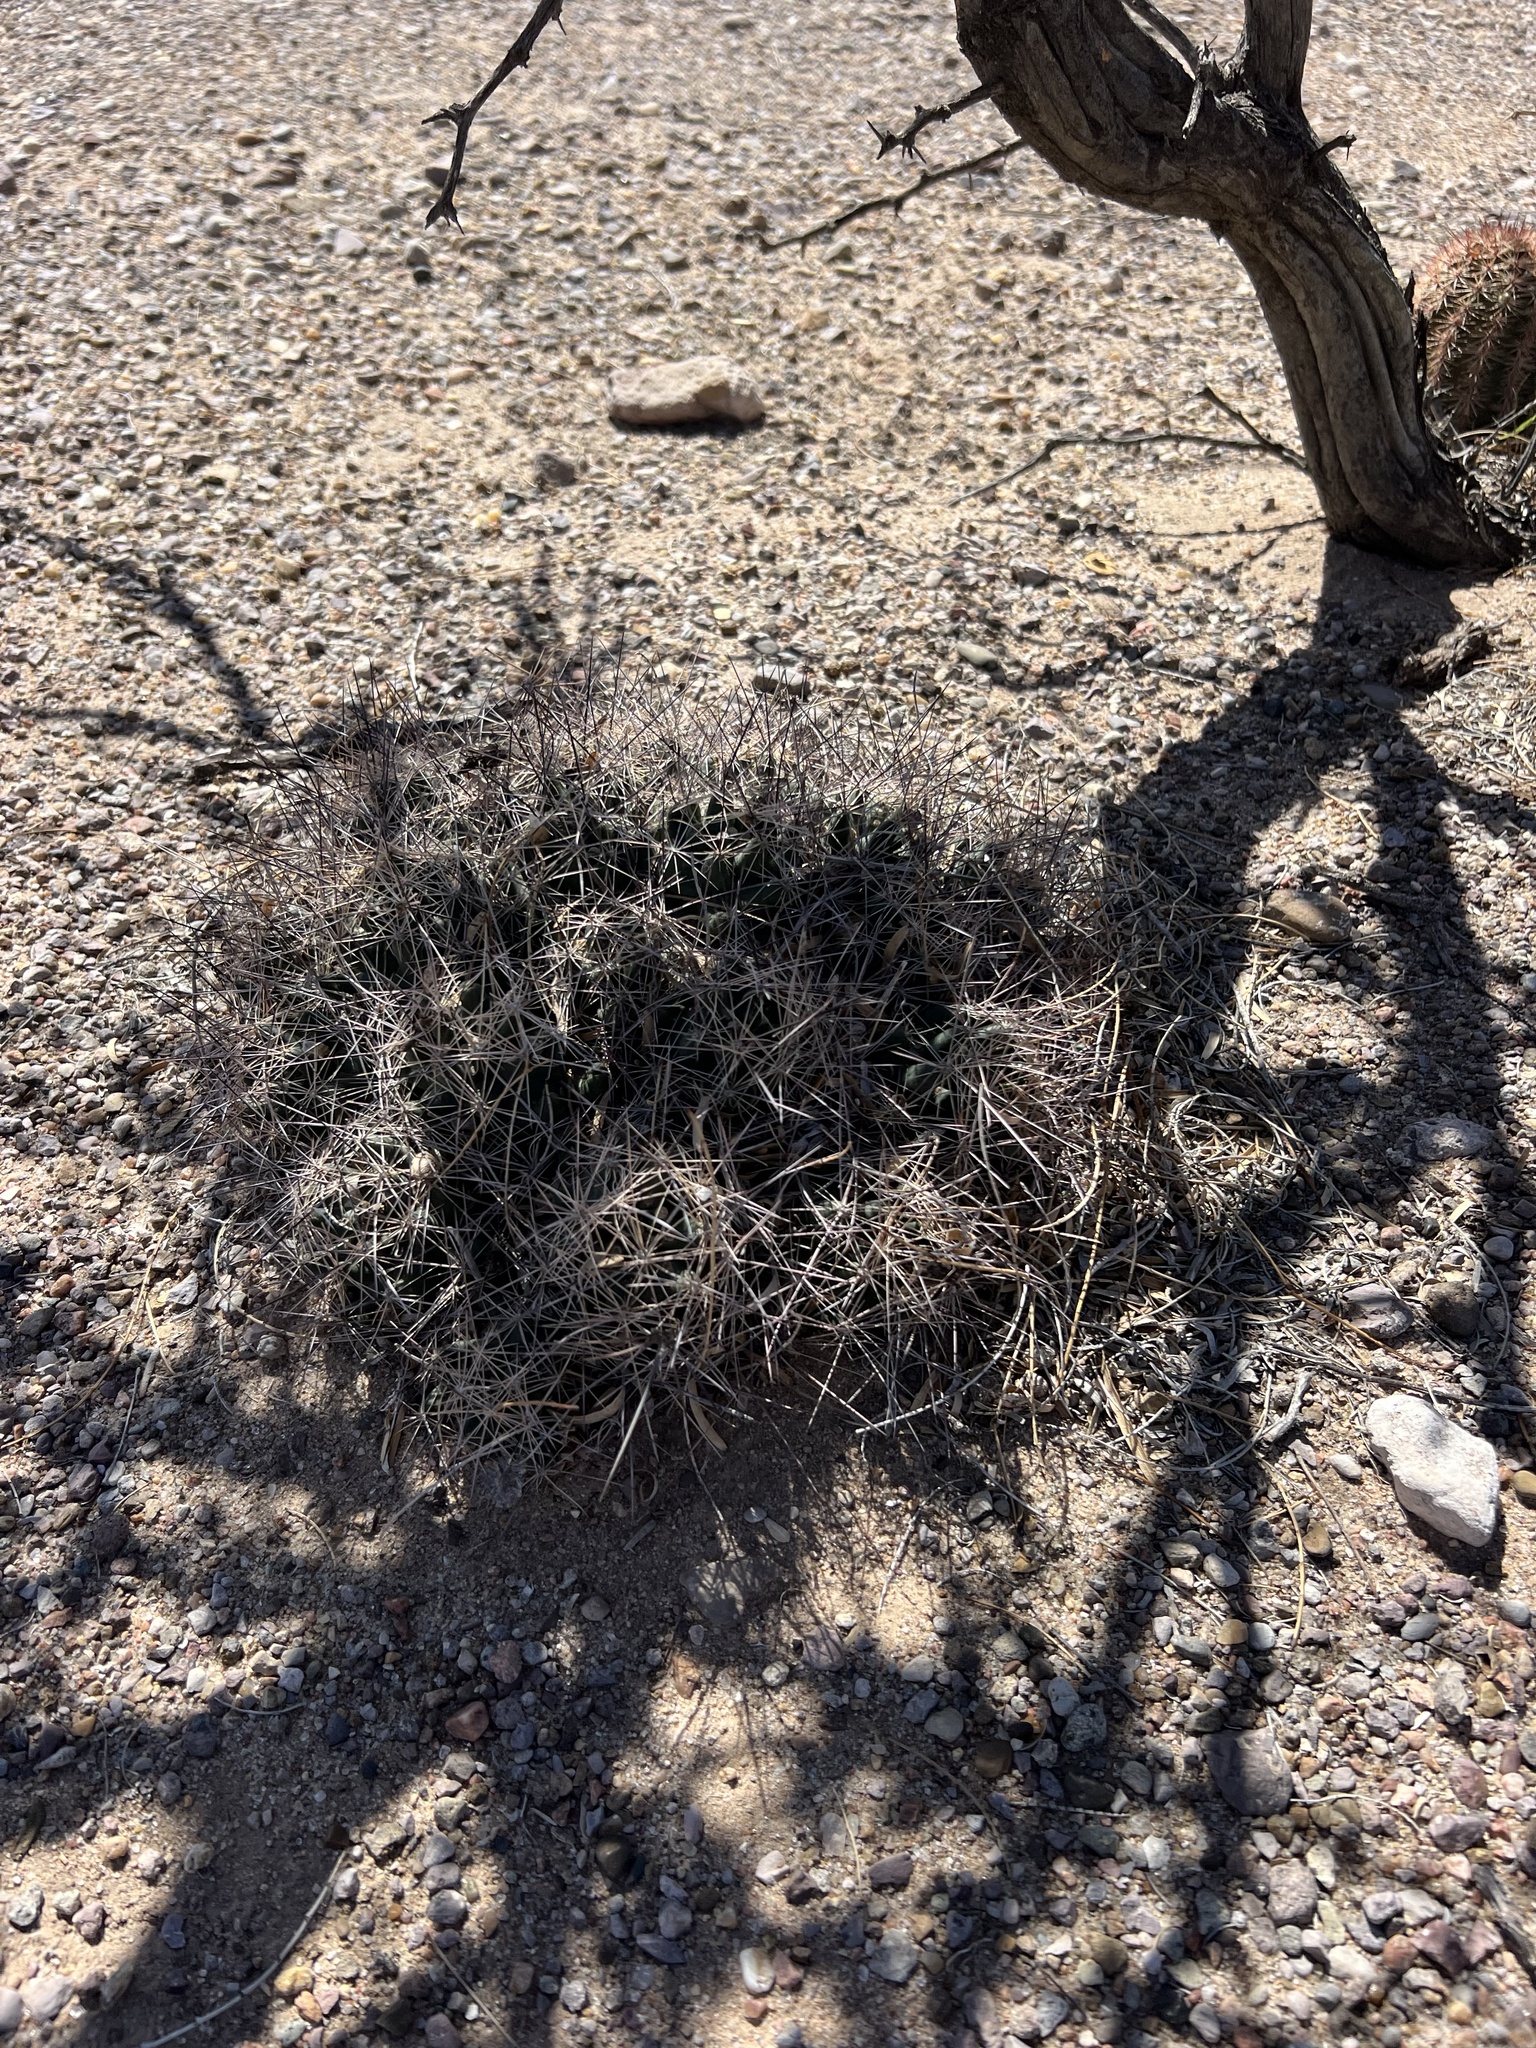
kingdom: Plantae
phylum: Tracheophyta
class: Magnoliopsida
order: Caryophyllales
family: Cactaceae
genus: Coryphantha
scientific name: Coryphantha macromeris
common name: Nipple beehive cactus
